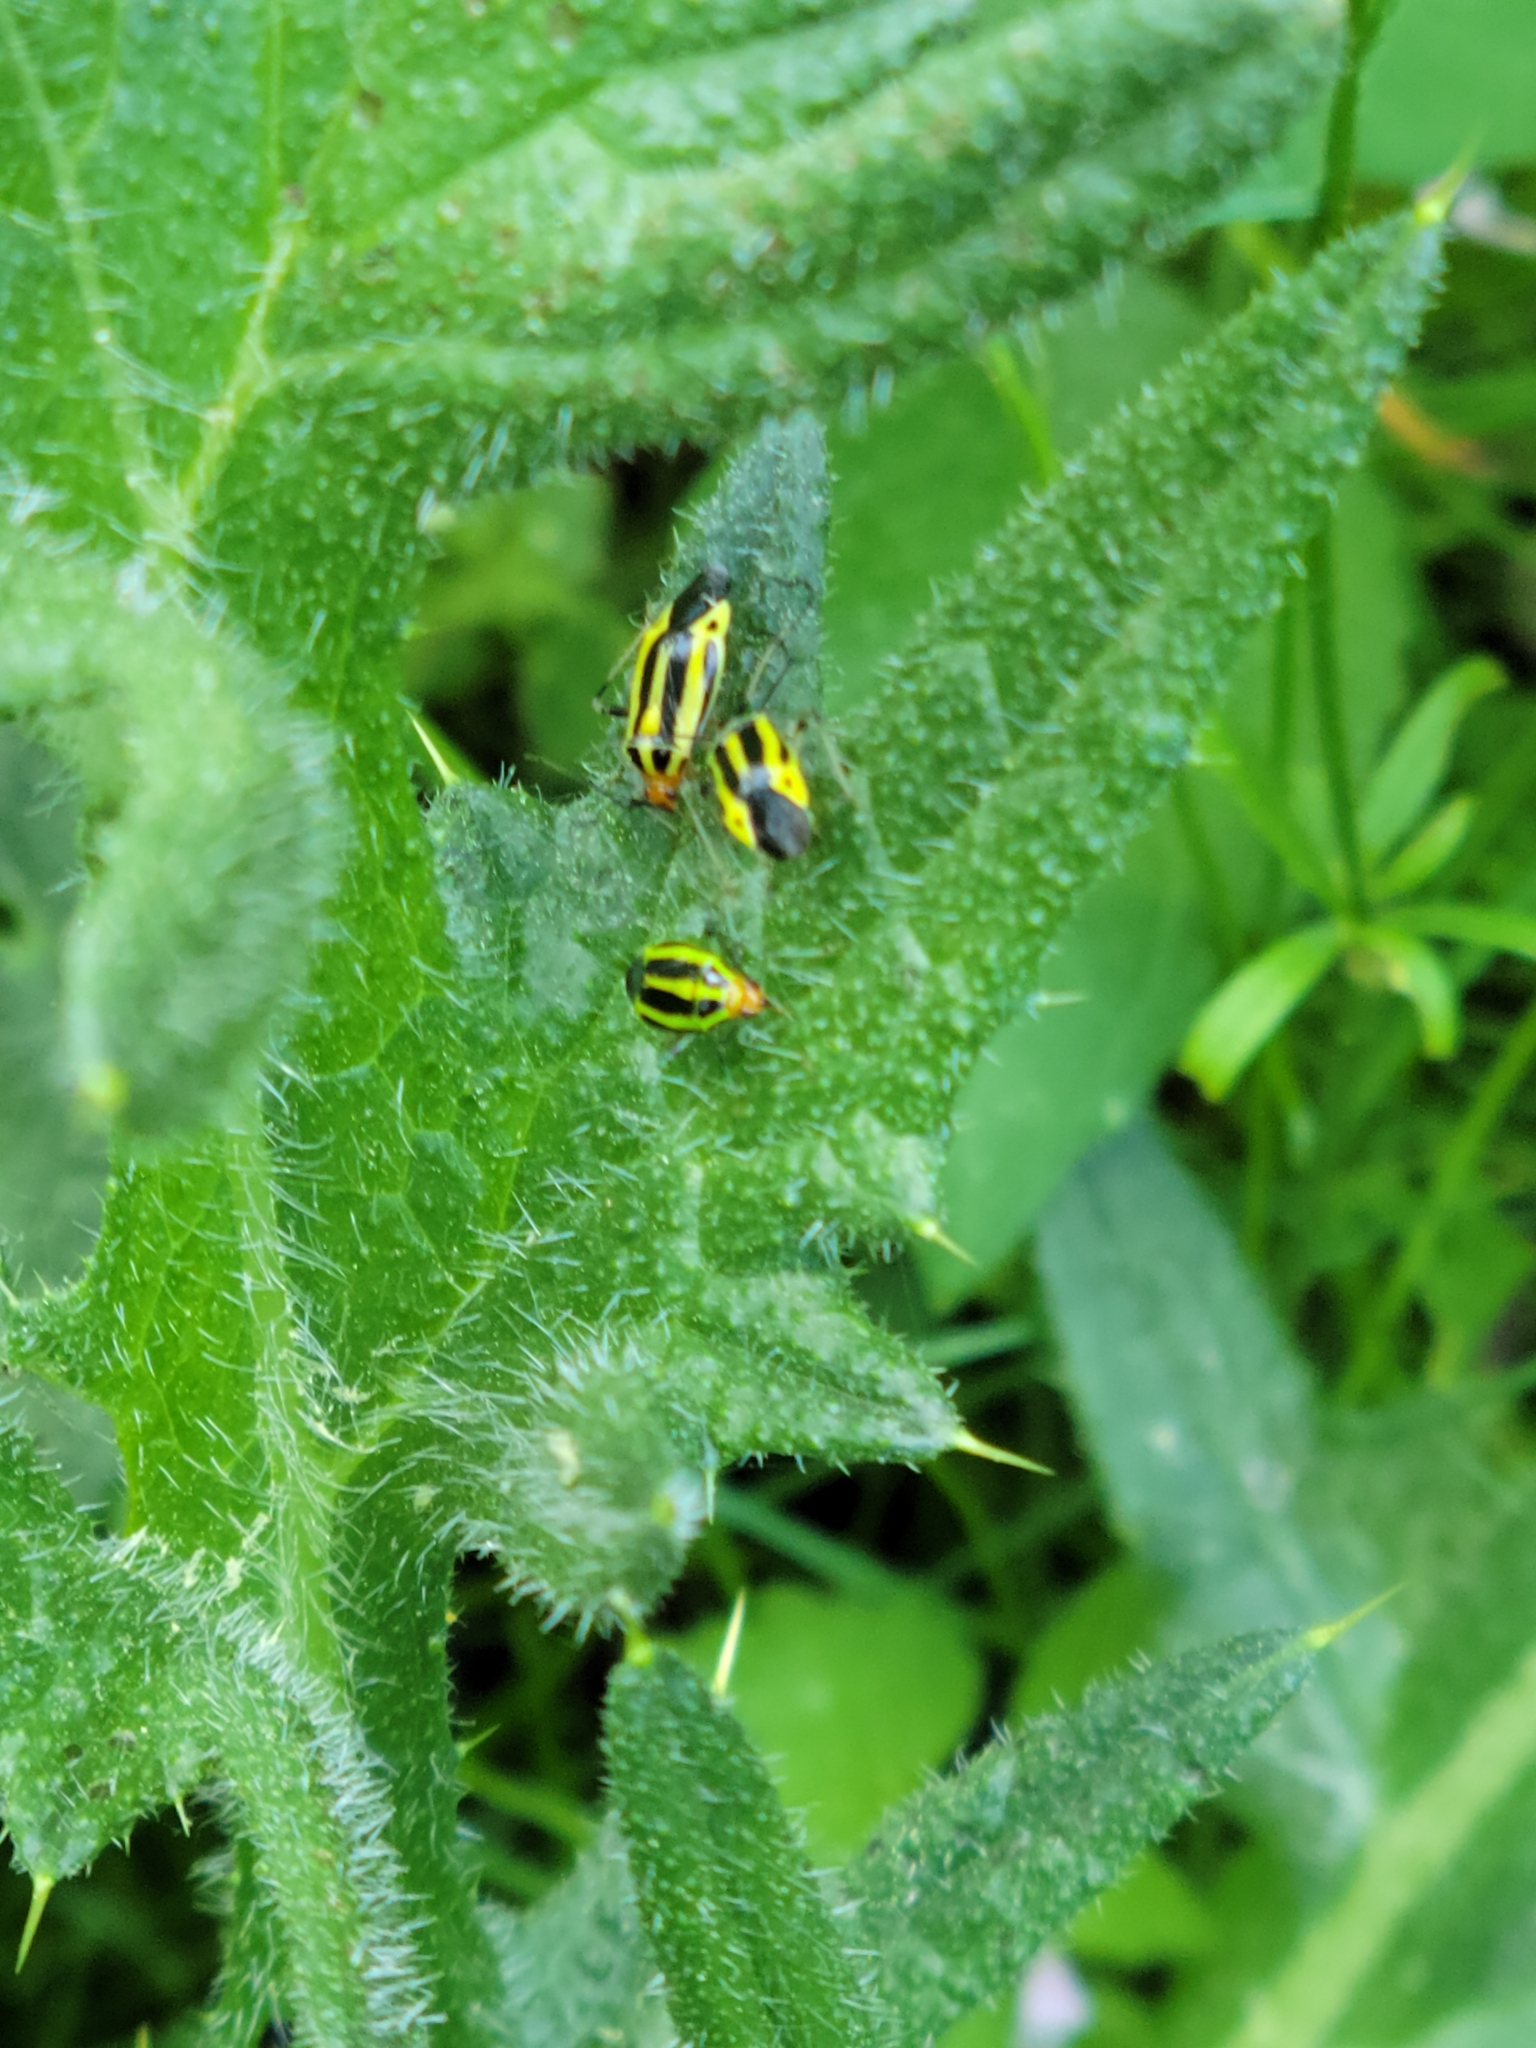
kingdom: Animalia
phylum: Arthropoda
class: Insecta
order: Hemiptera
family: Miridae
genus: Poecilocapsus
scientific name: Poecilocapsus lineatus
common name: Four-lined plant bug
